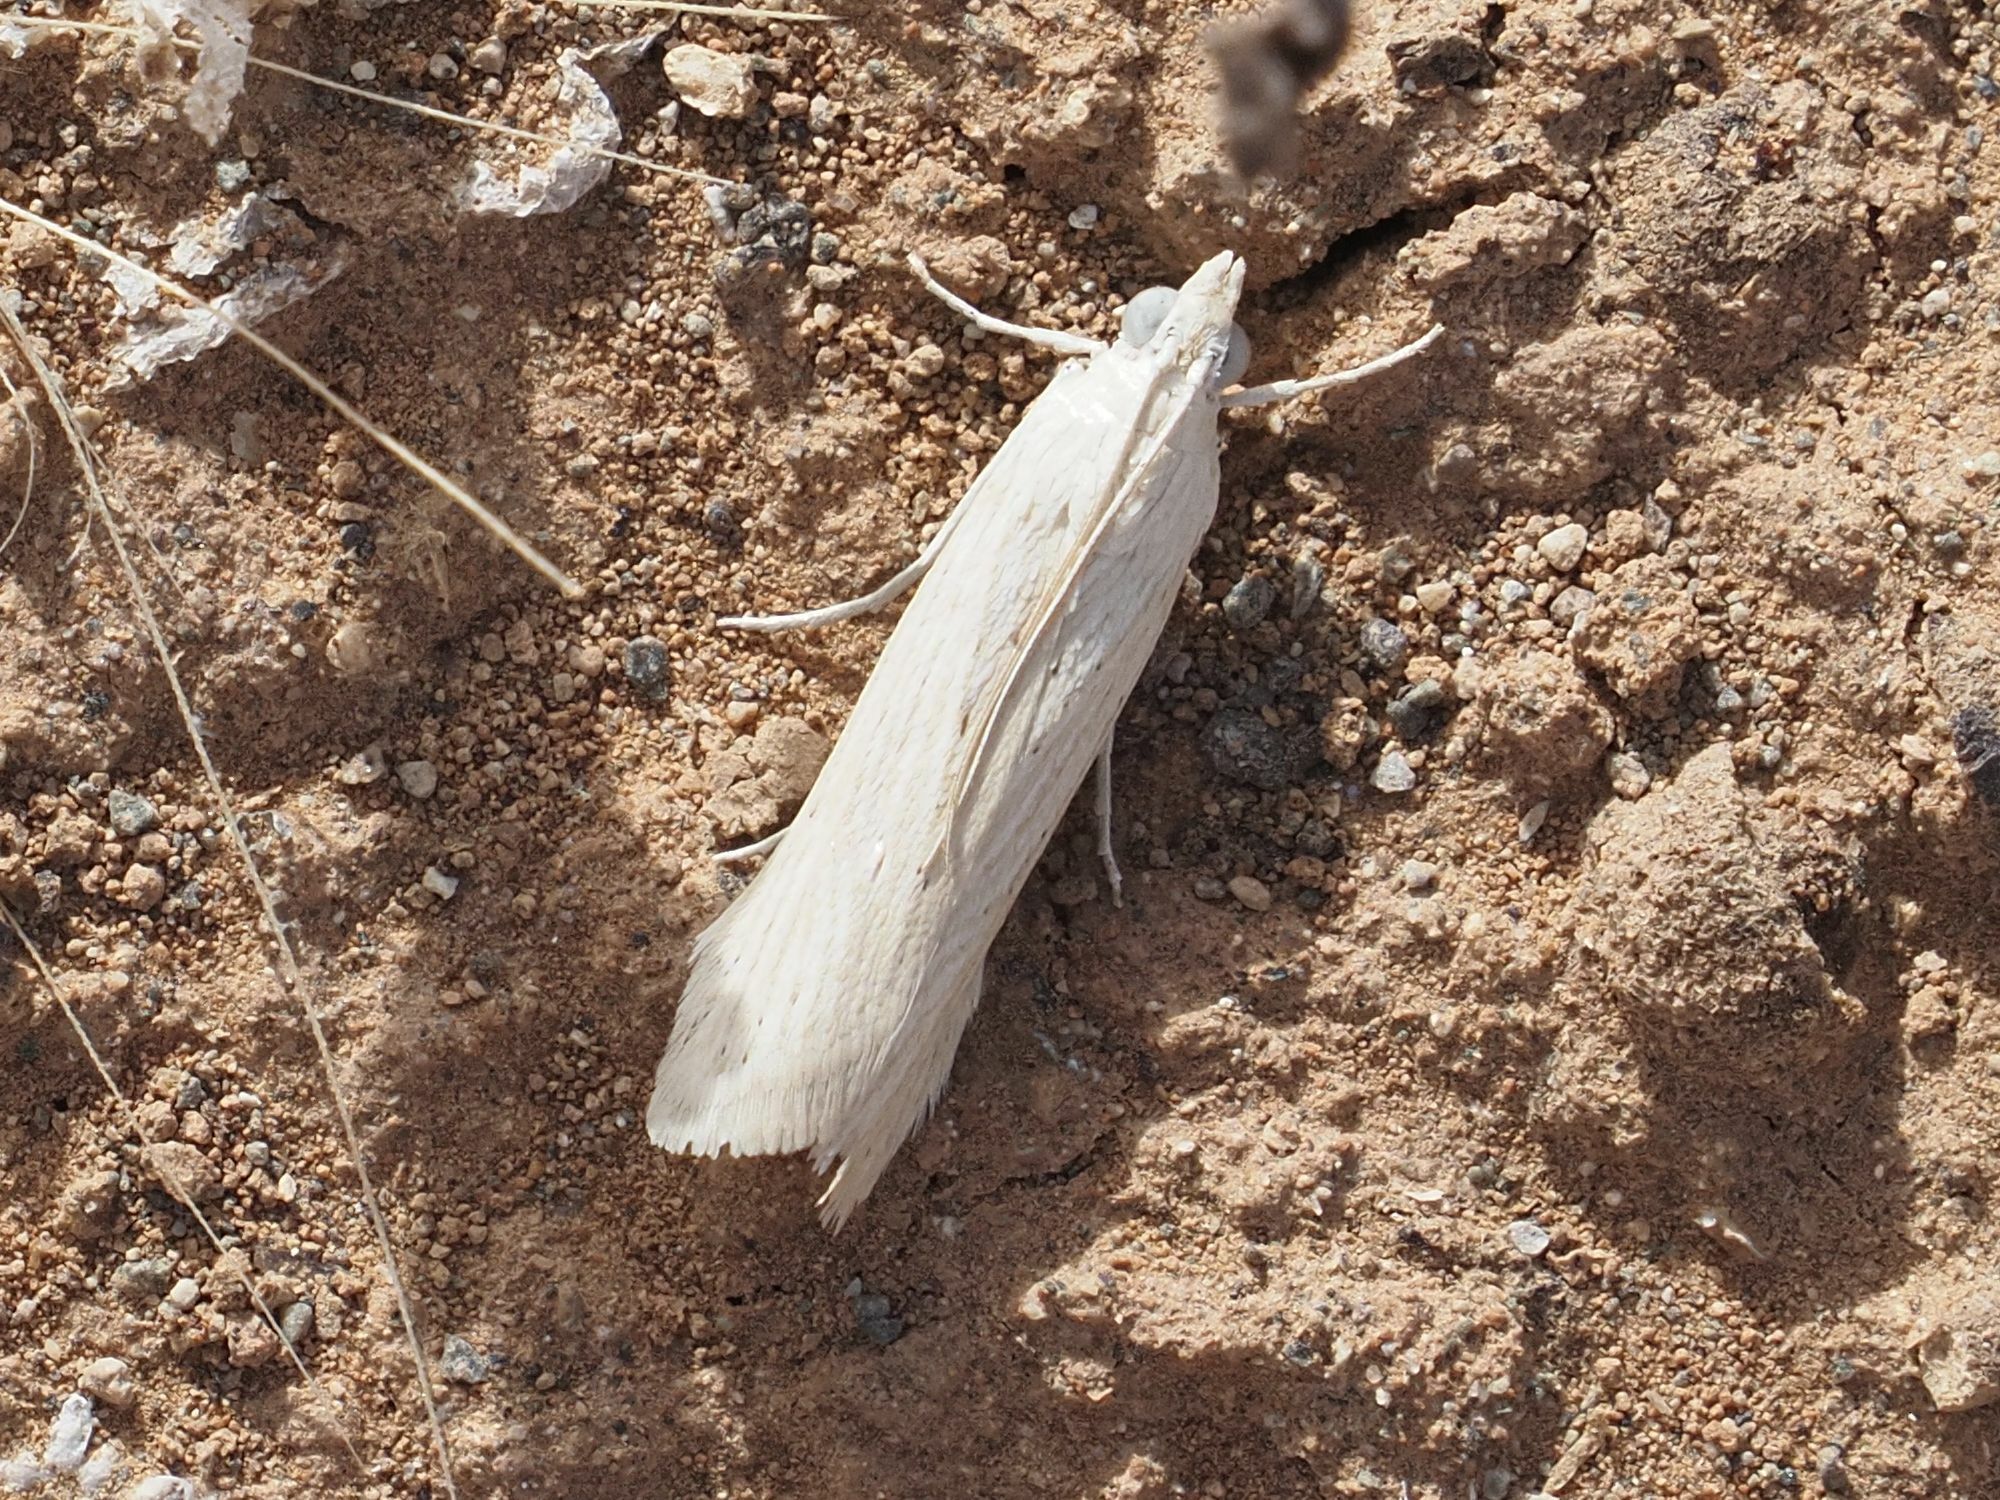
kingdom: Animalia
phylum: Arthropoda
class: Insecta
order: Lepidoptera
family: Pyralidae
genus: Ancylodes
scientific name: Ancylodes pallens
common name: Pale knot-horn
